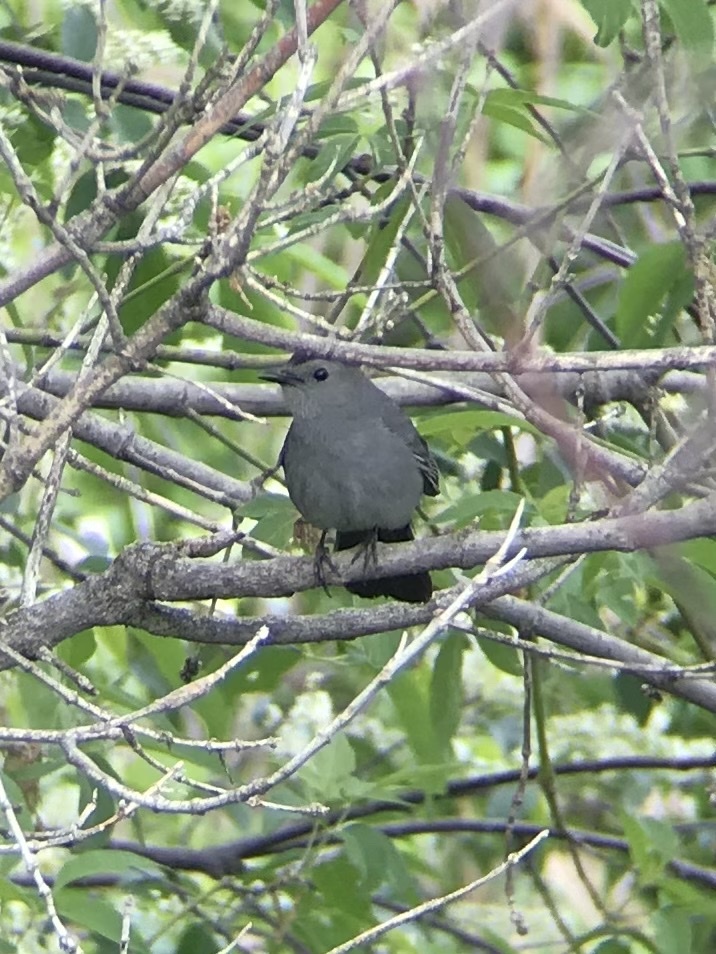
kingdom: Animalia
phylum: Chordata
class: Aves
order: Passeriformes
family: Mimidae
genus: Dumetella
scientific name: Dumetella carolinensis
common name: Gray catbird
